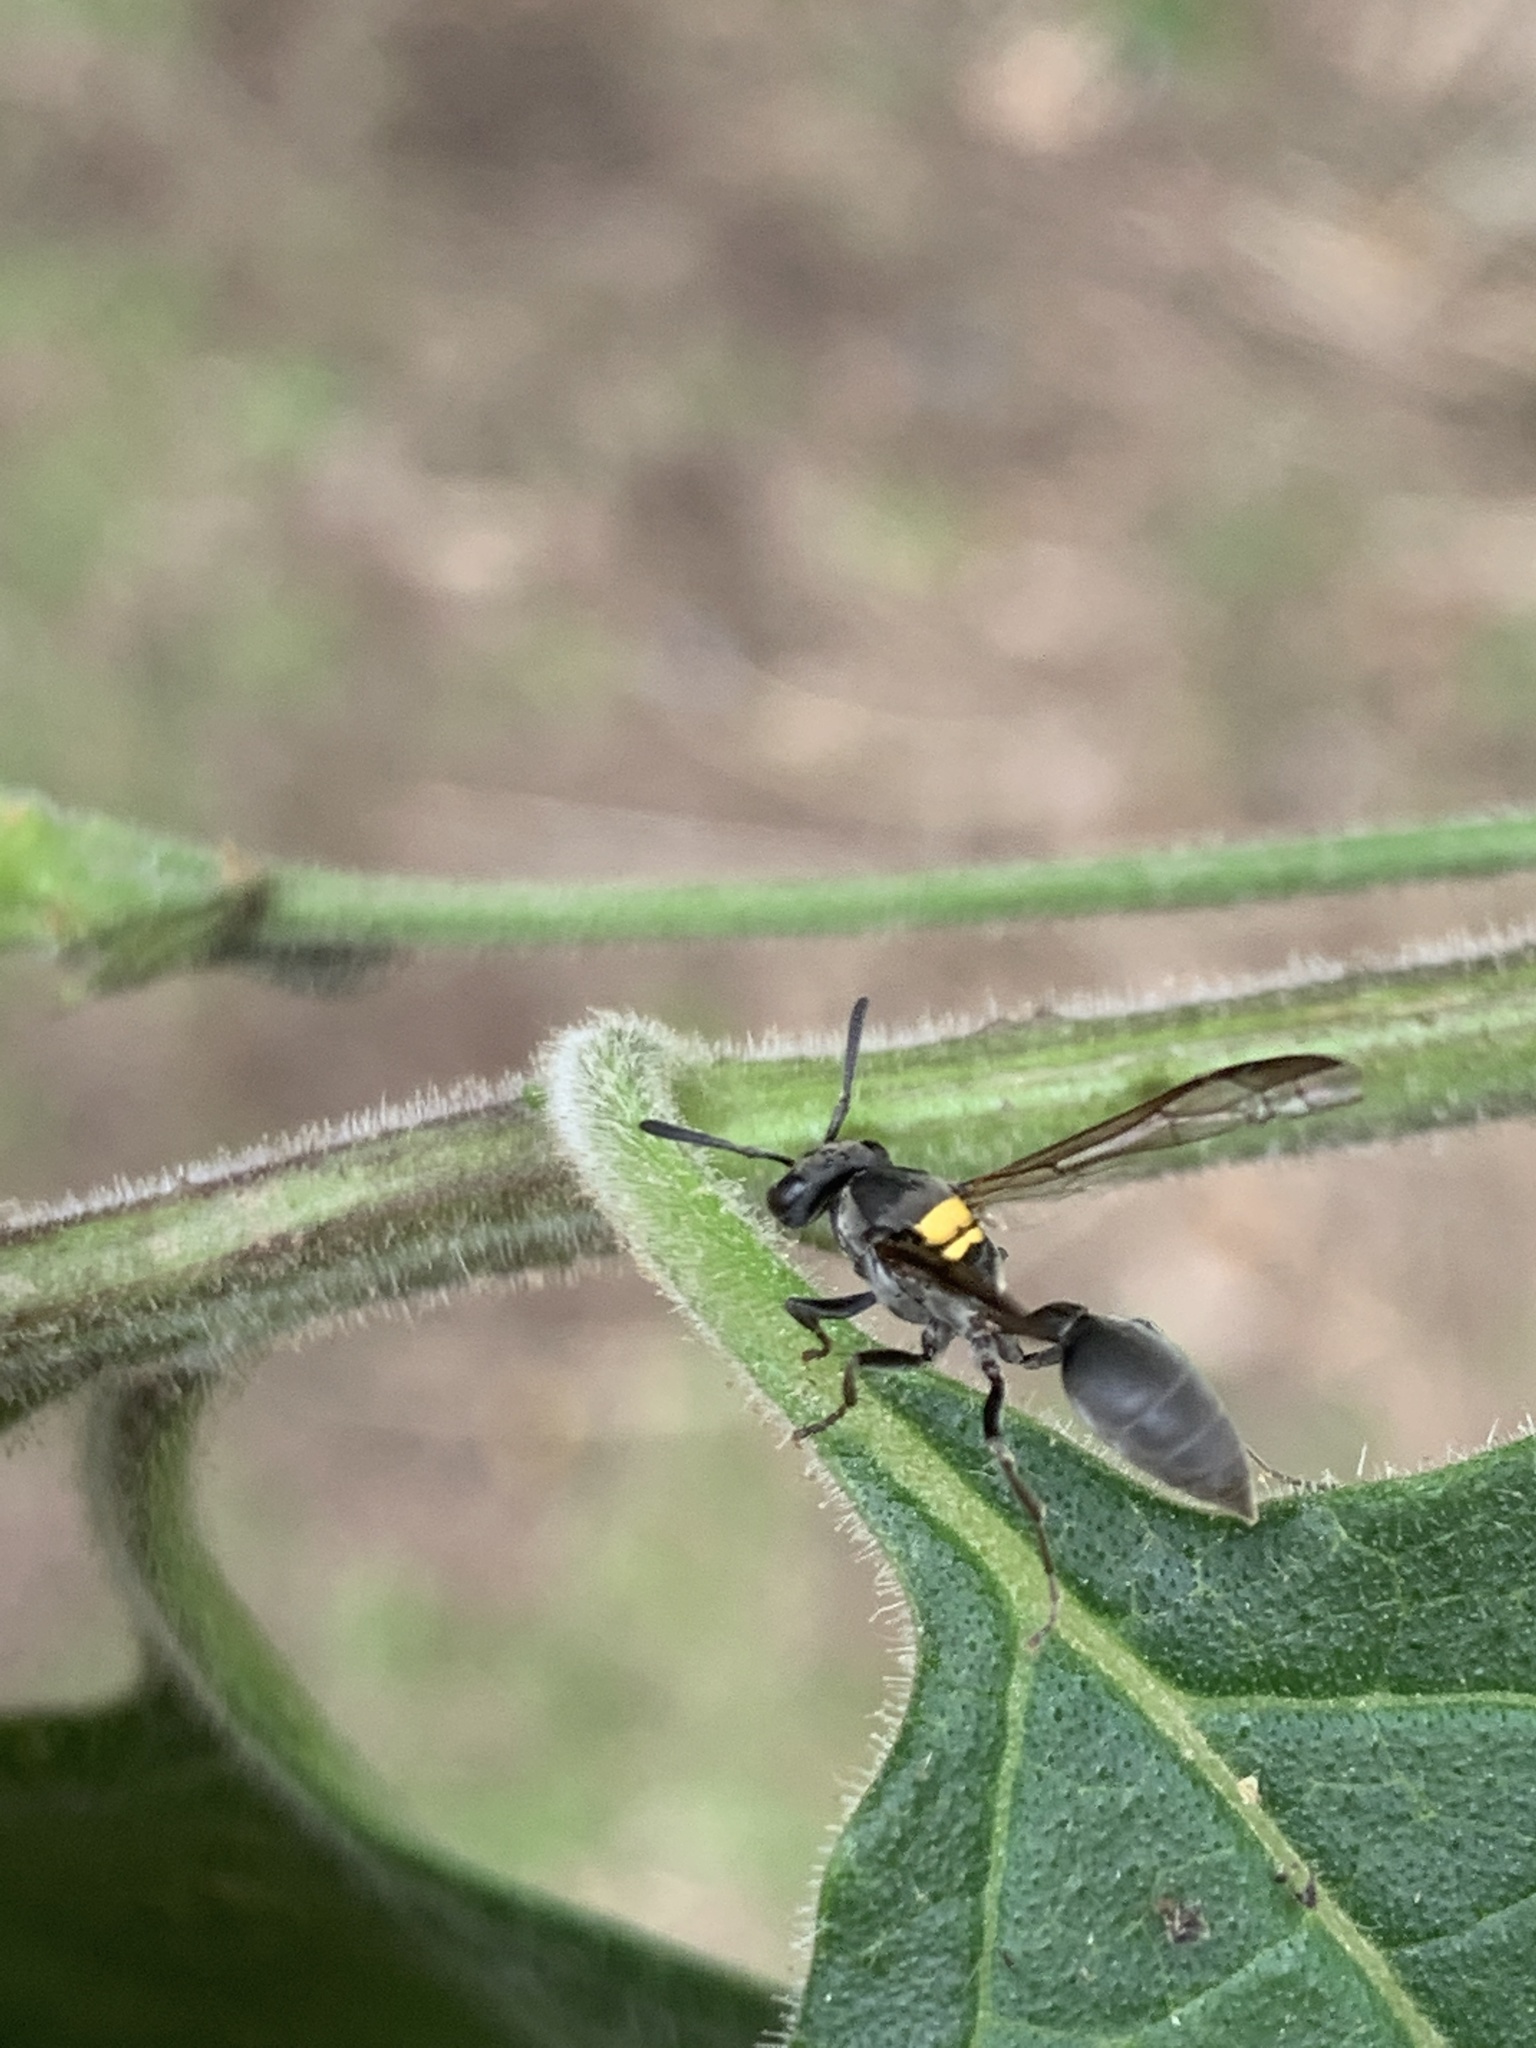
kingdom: Animalia
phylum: Arthropoda
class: Insecta
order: Hymenoptera
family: Eumenidae
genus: Polybia
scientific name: Polybia scutellaris
